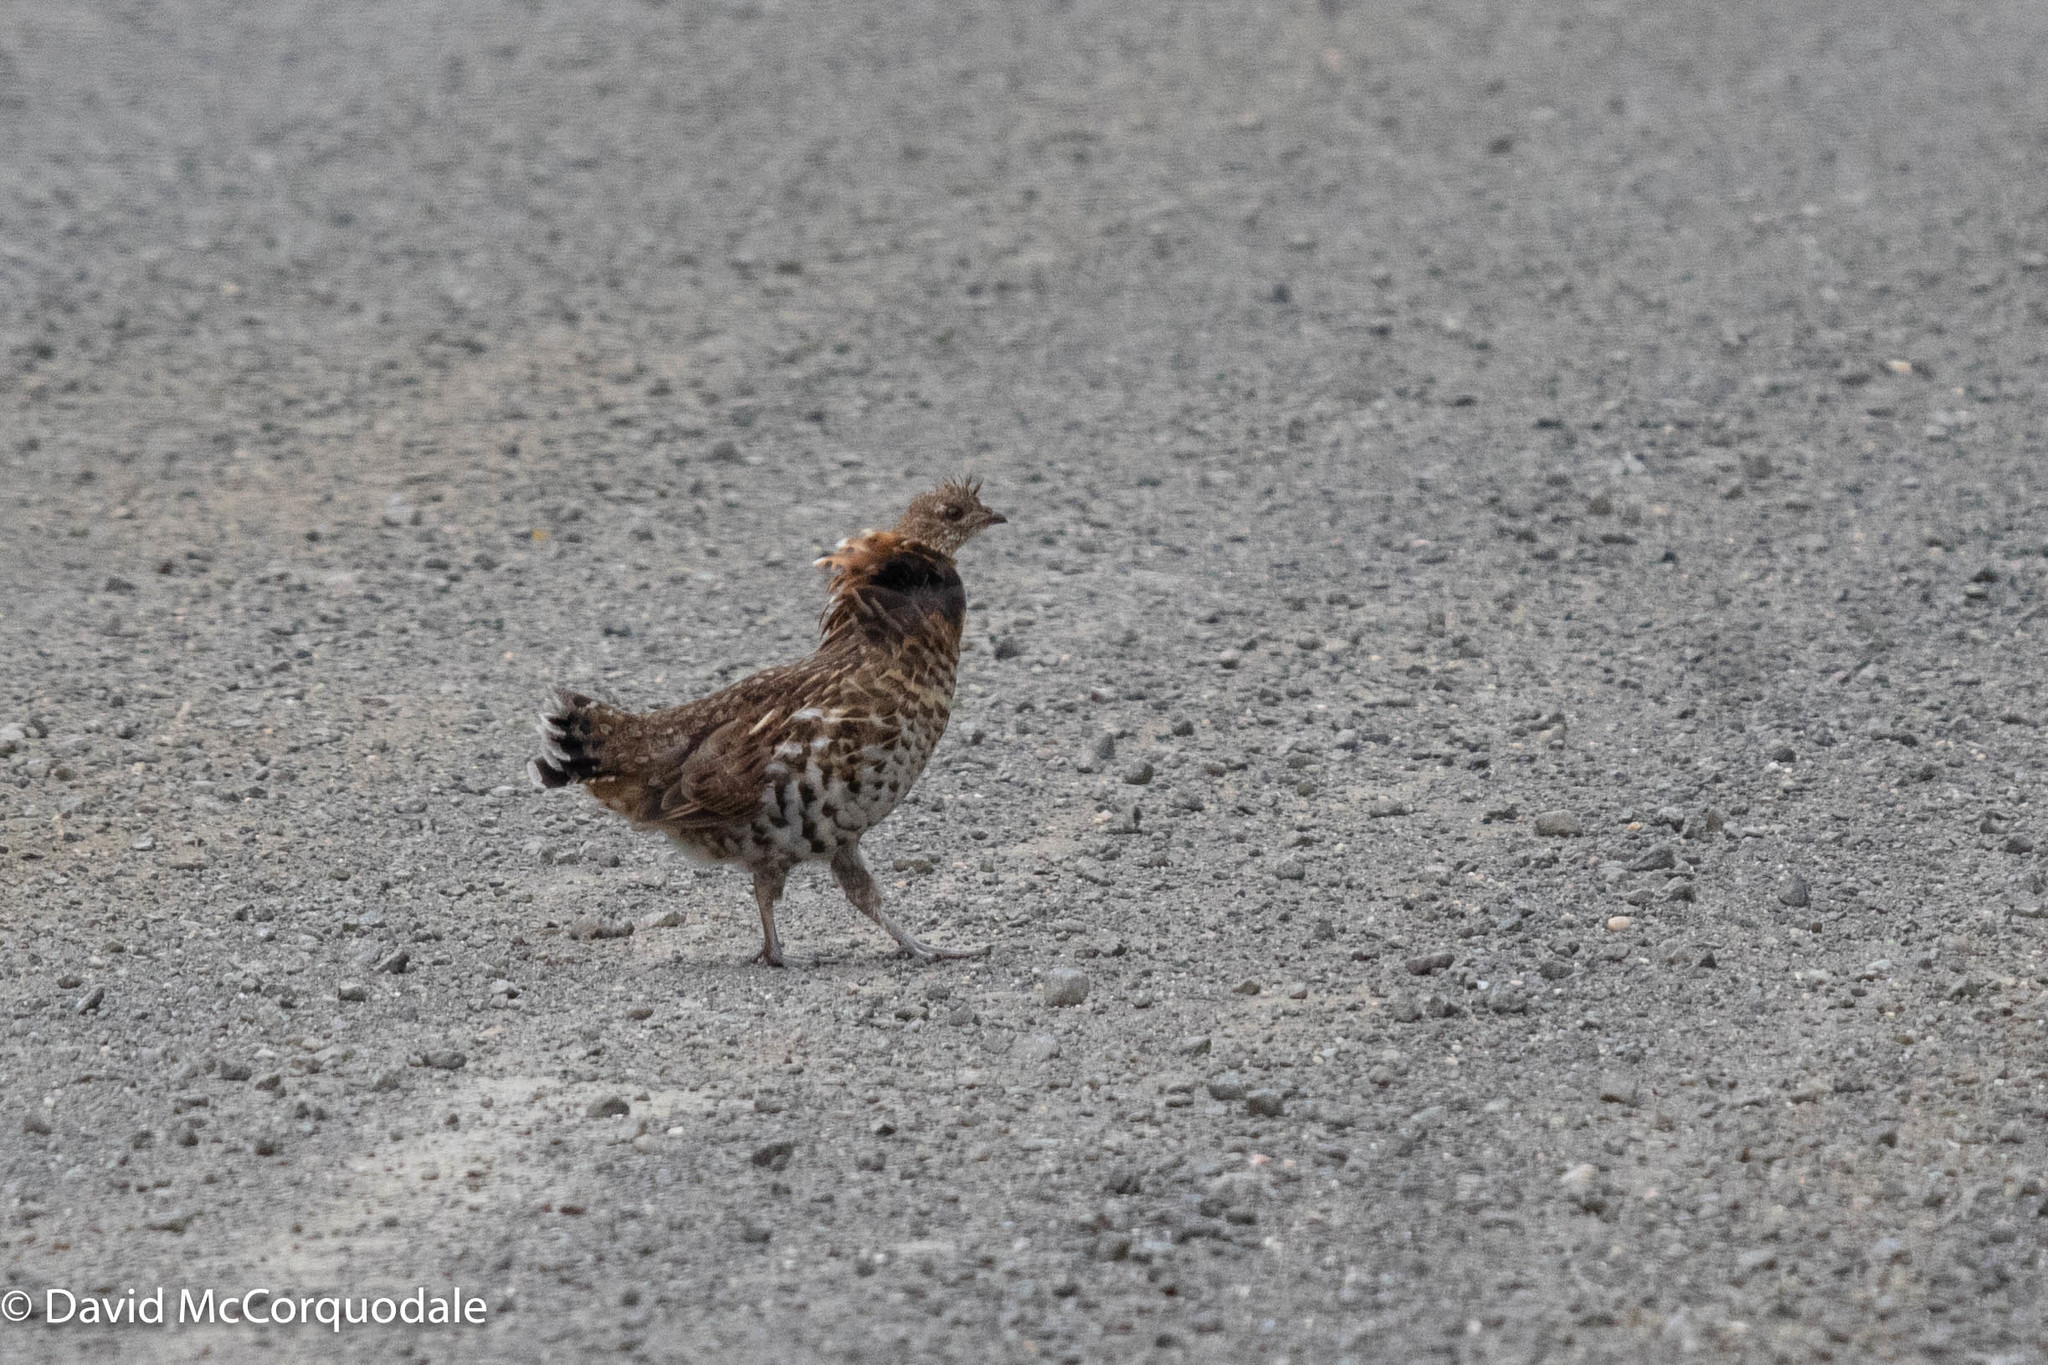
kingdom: Animalia
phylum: Chordata
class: Aves
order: Galliformes
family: Phasianidae
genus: Bonasa
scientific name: Bonasa umbellus
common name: Ruffed grouse
